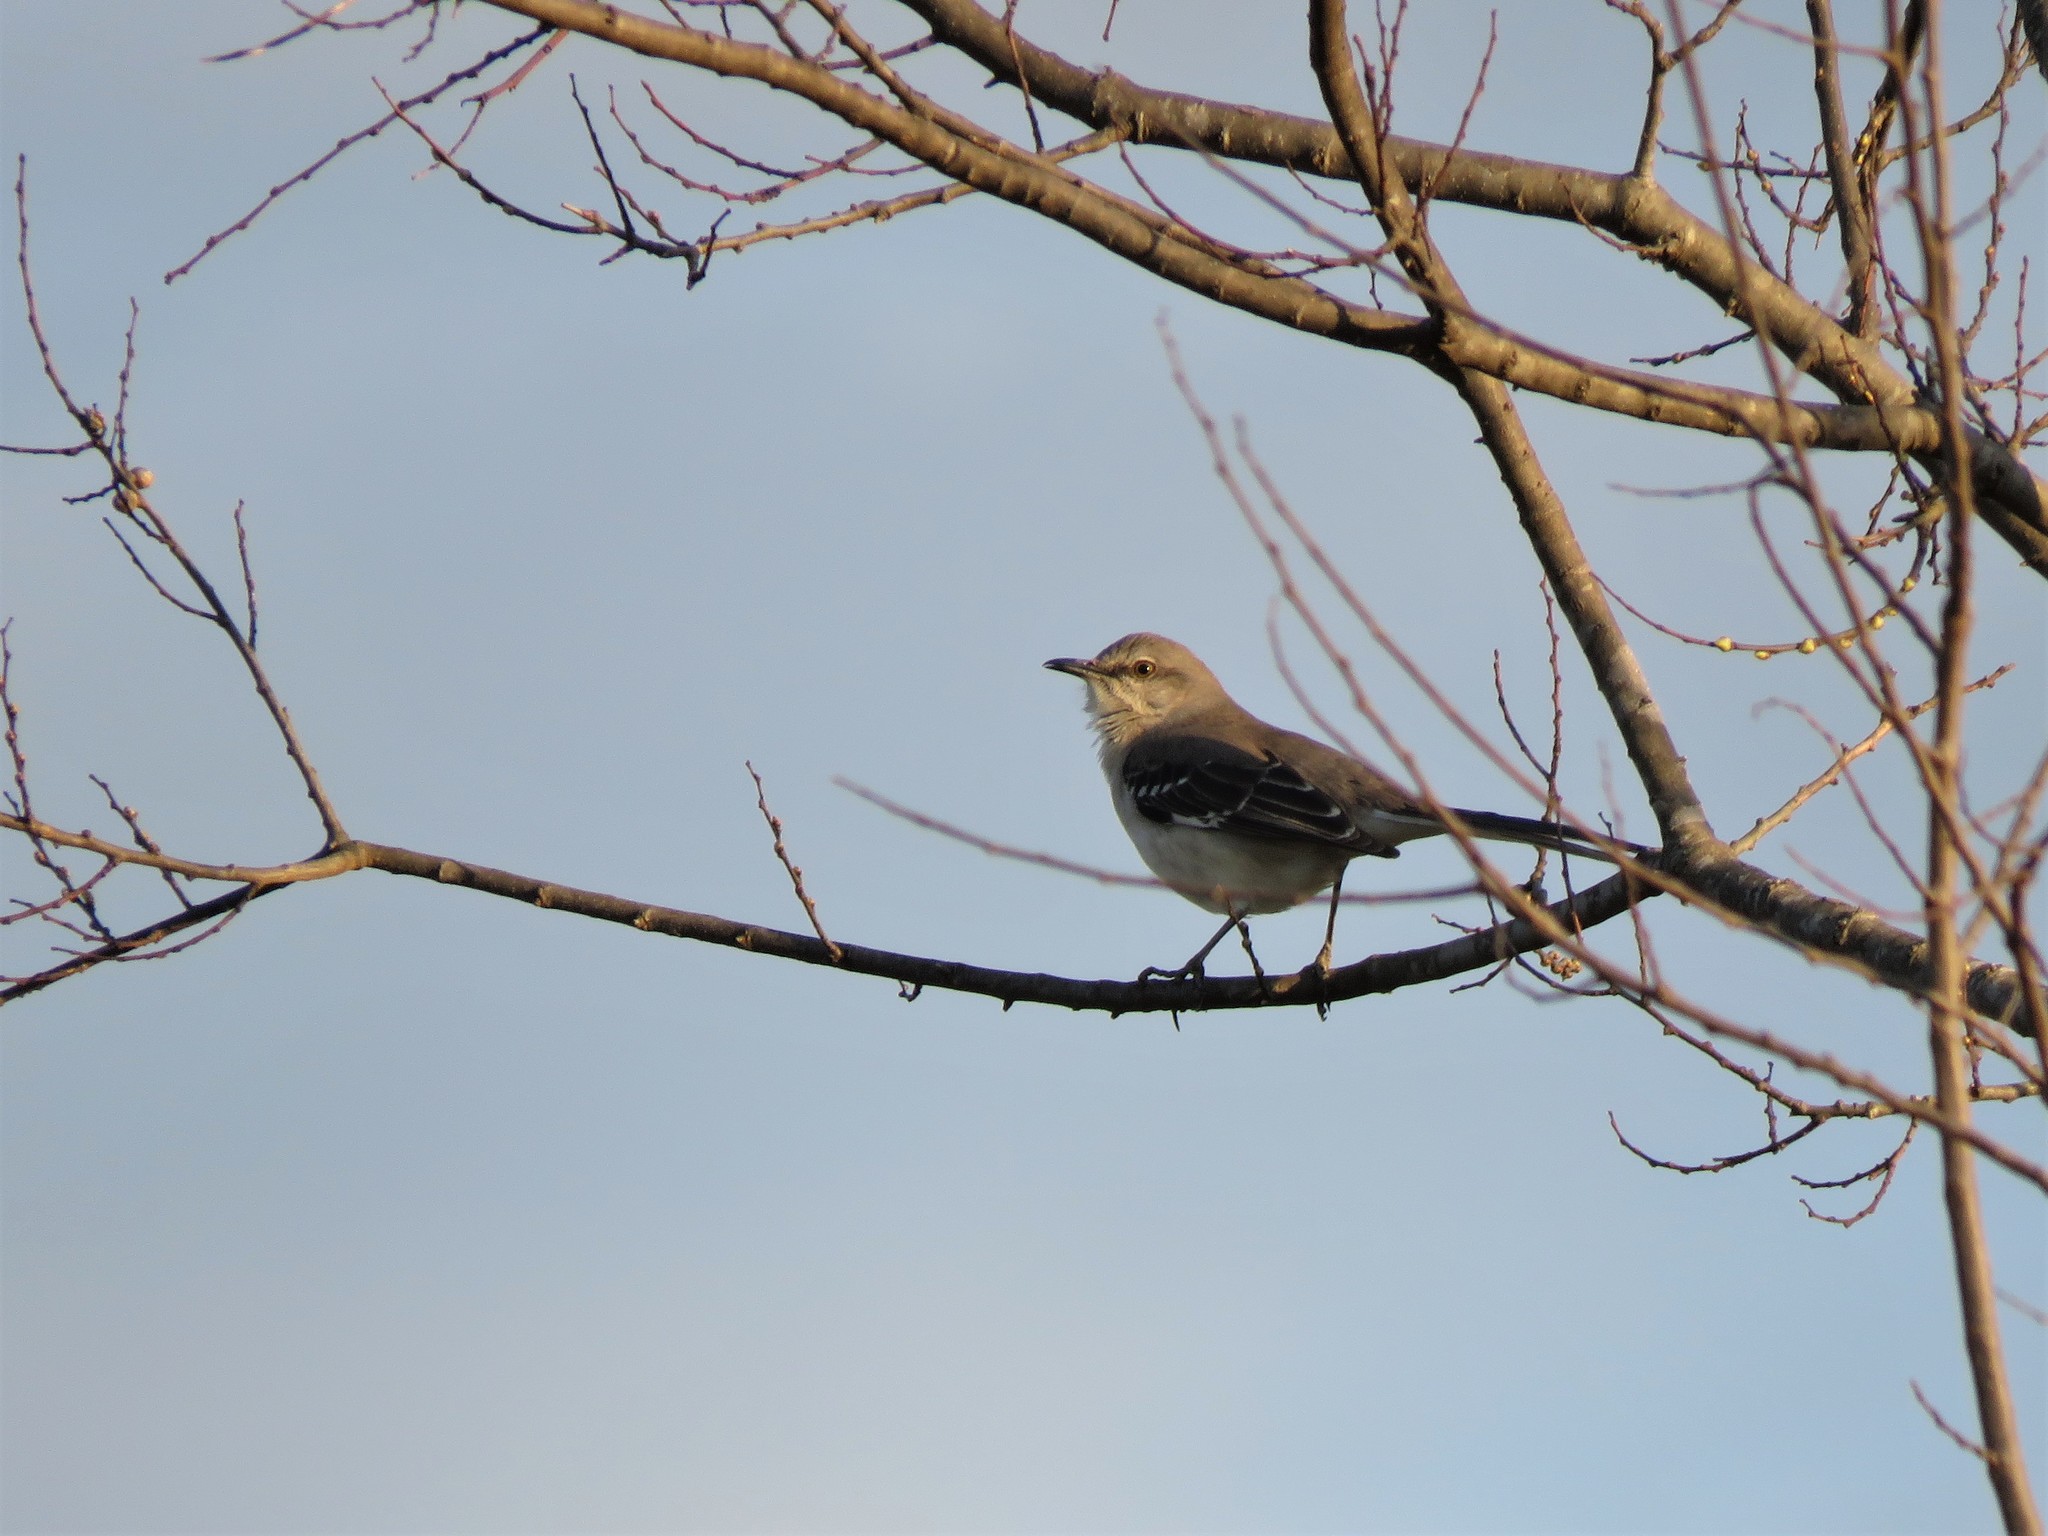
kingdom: Animalia
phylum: Chordata
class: Aves
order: Passeriformes
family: Mimidae
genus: Mimus
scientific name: Mimus polyglottos
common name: Northern mockingbird
